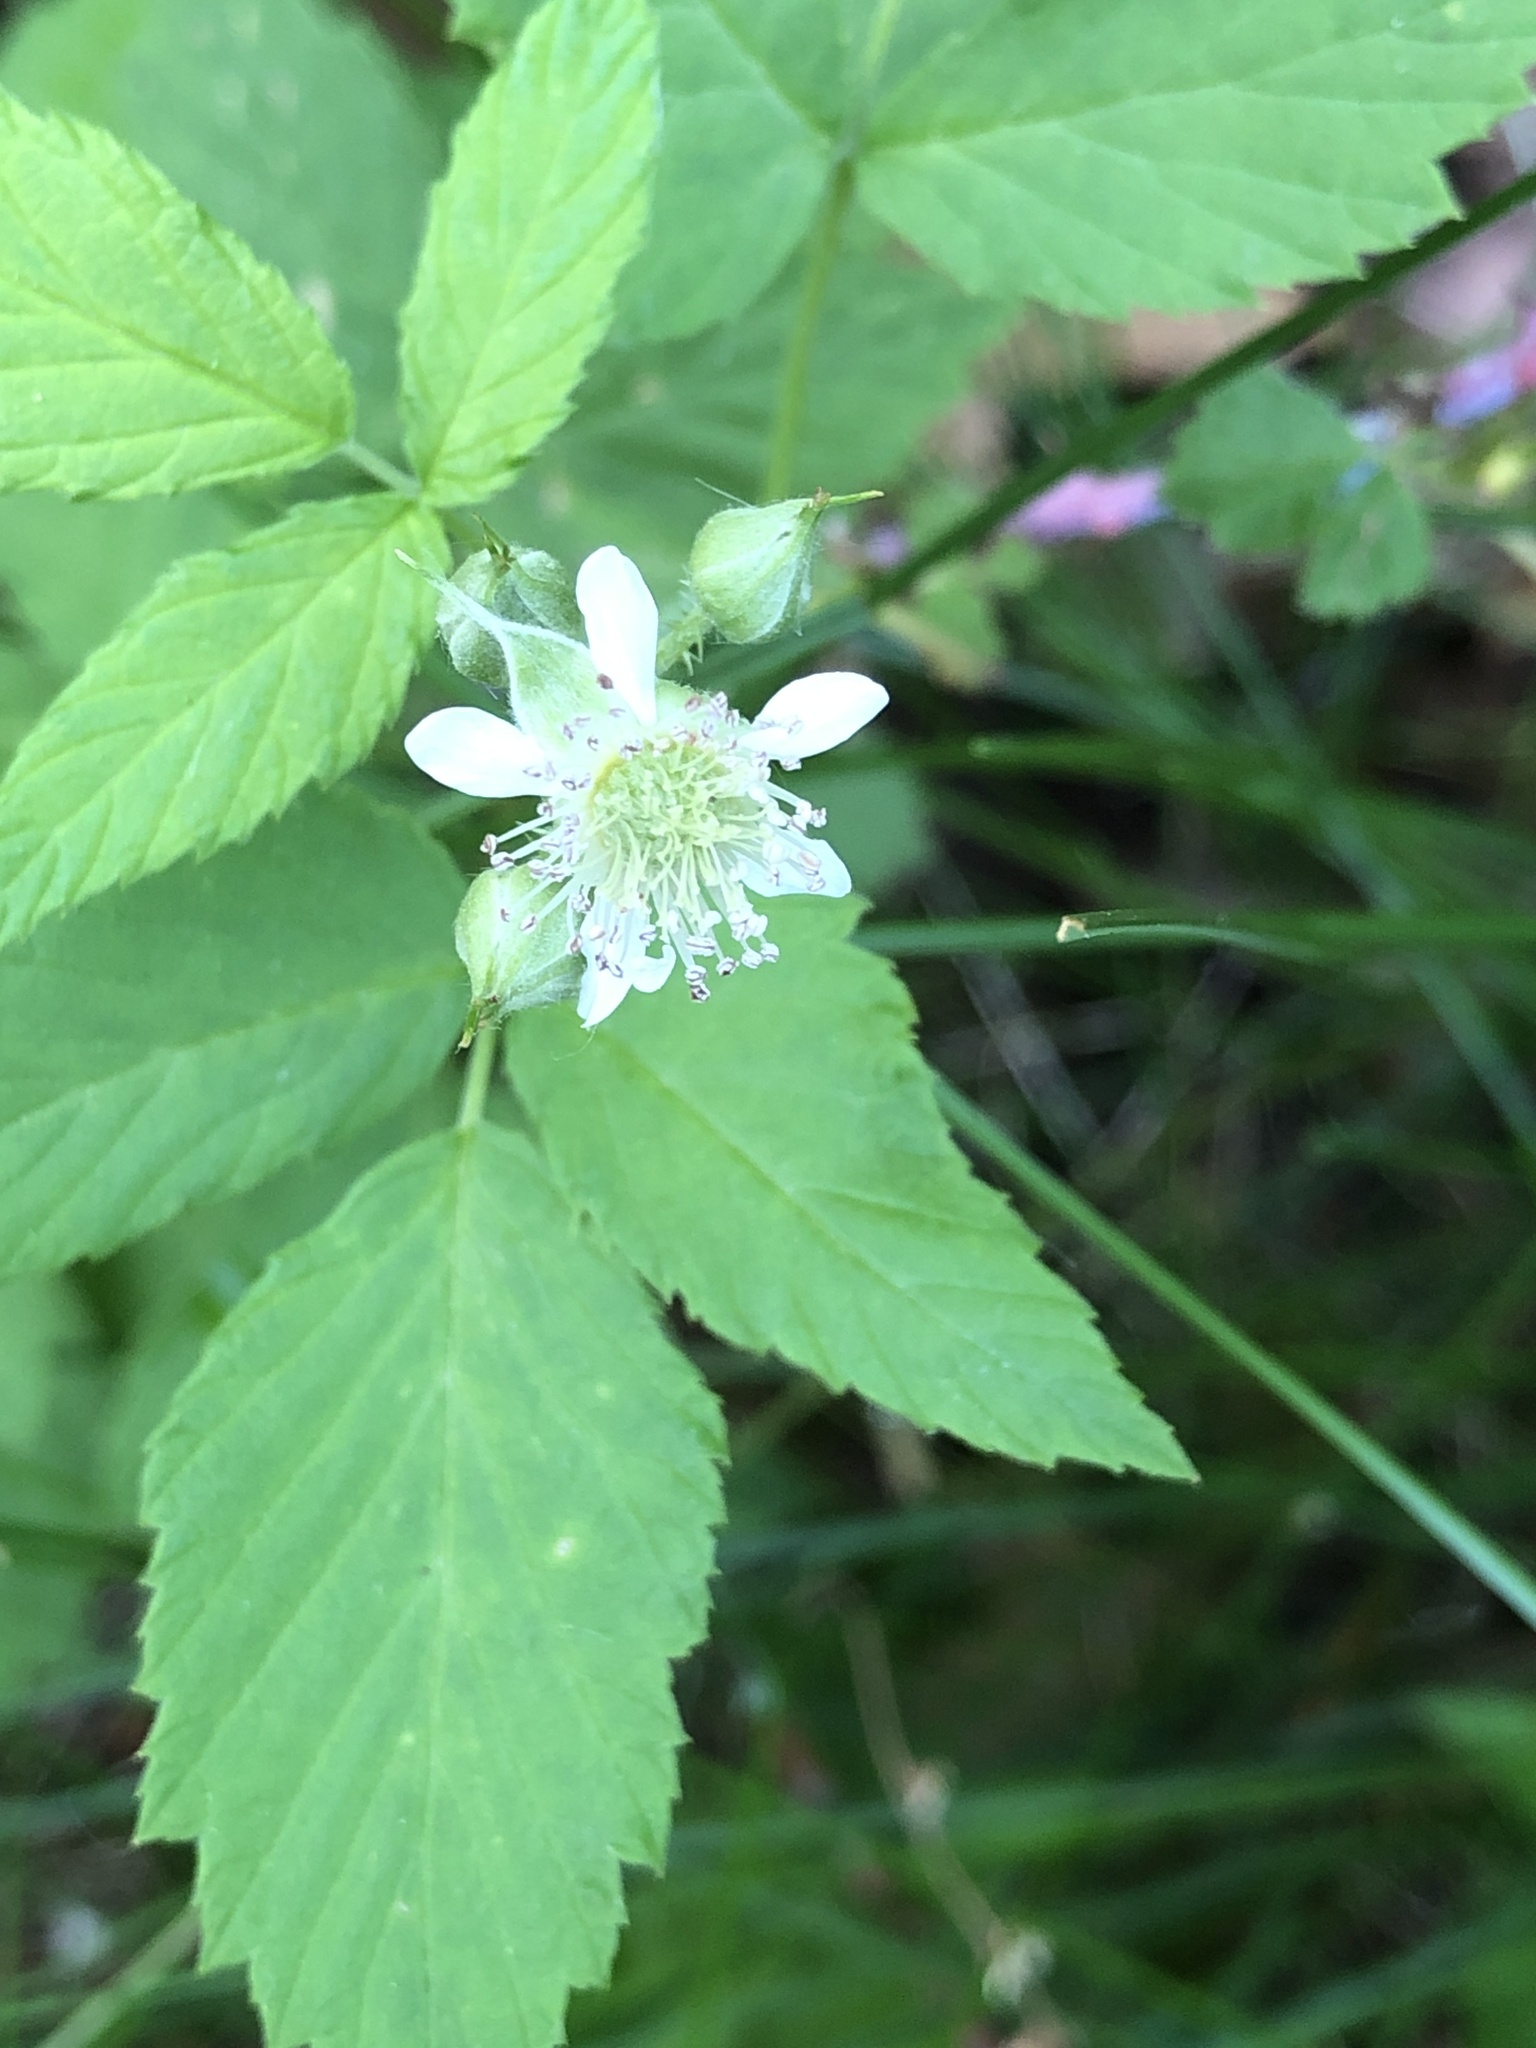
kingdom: Plantae
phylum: Tracheophyta
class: Magnoliopsida
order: Rosales
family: Rosaceae
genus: Rubus
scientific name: Rubus occidentalis
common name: Black raspberry
